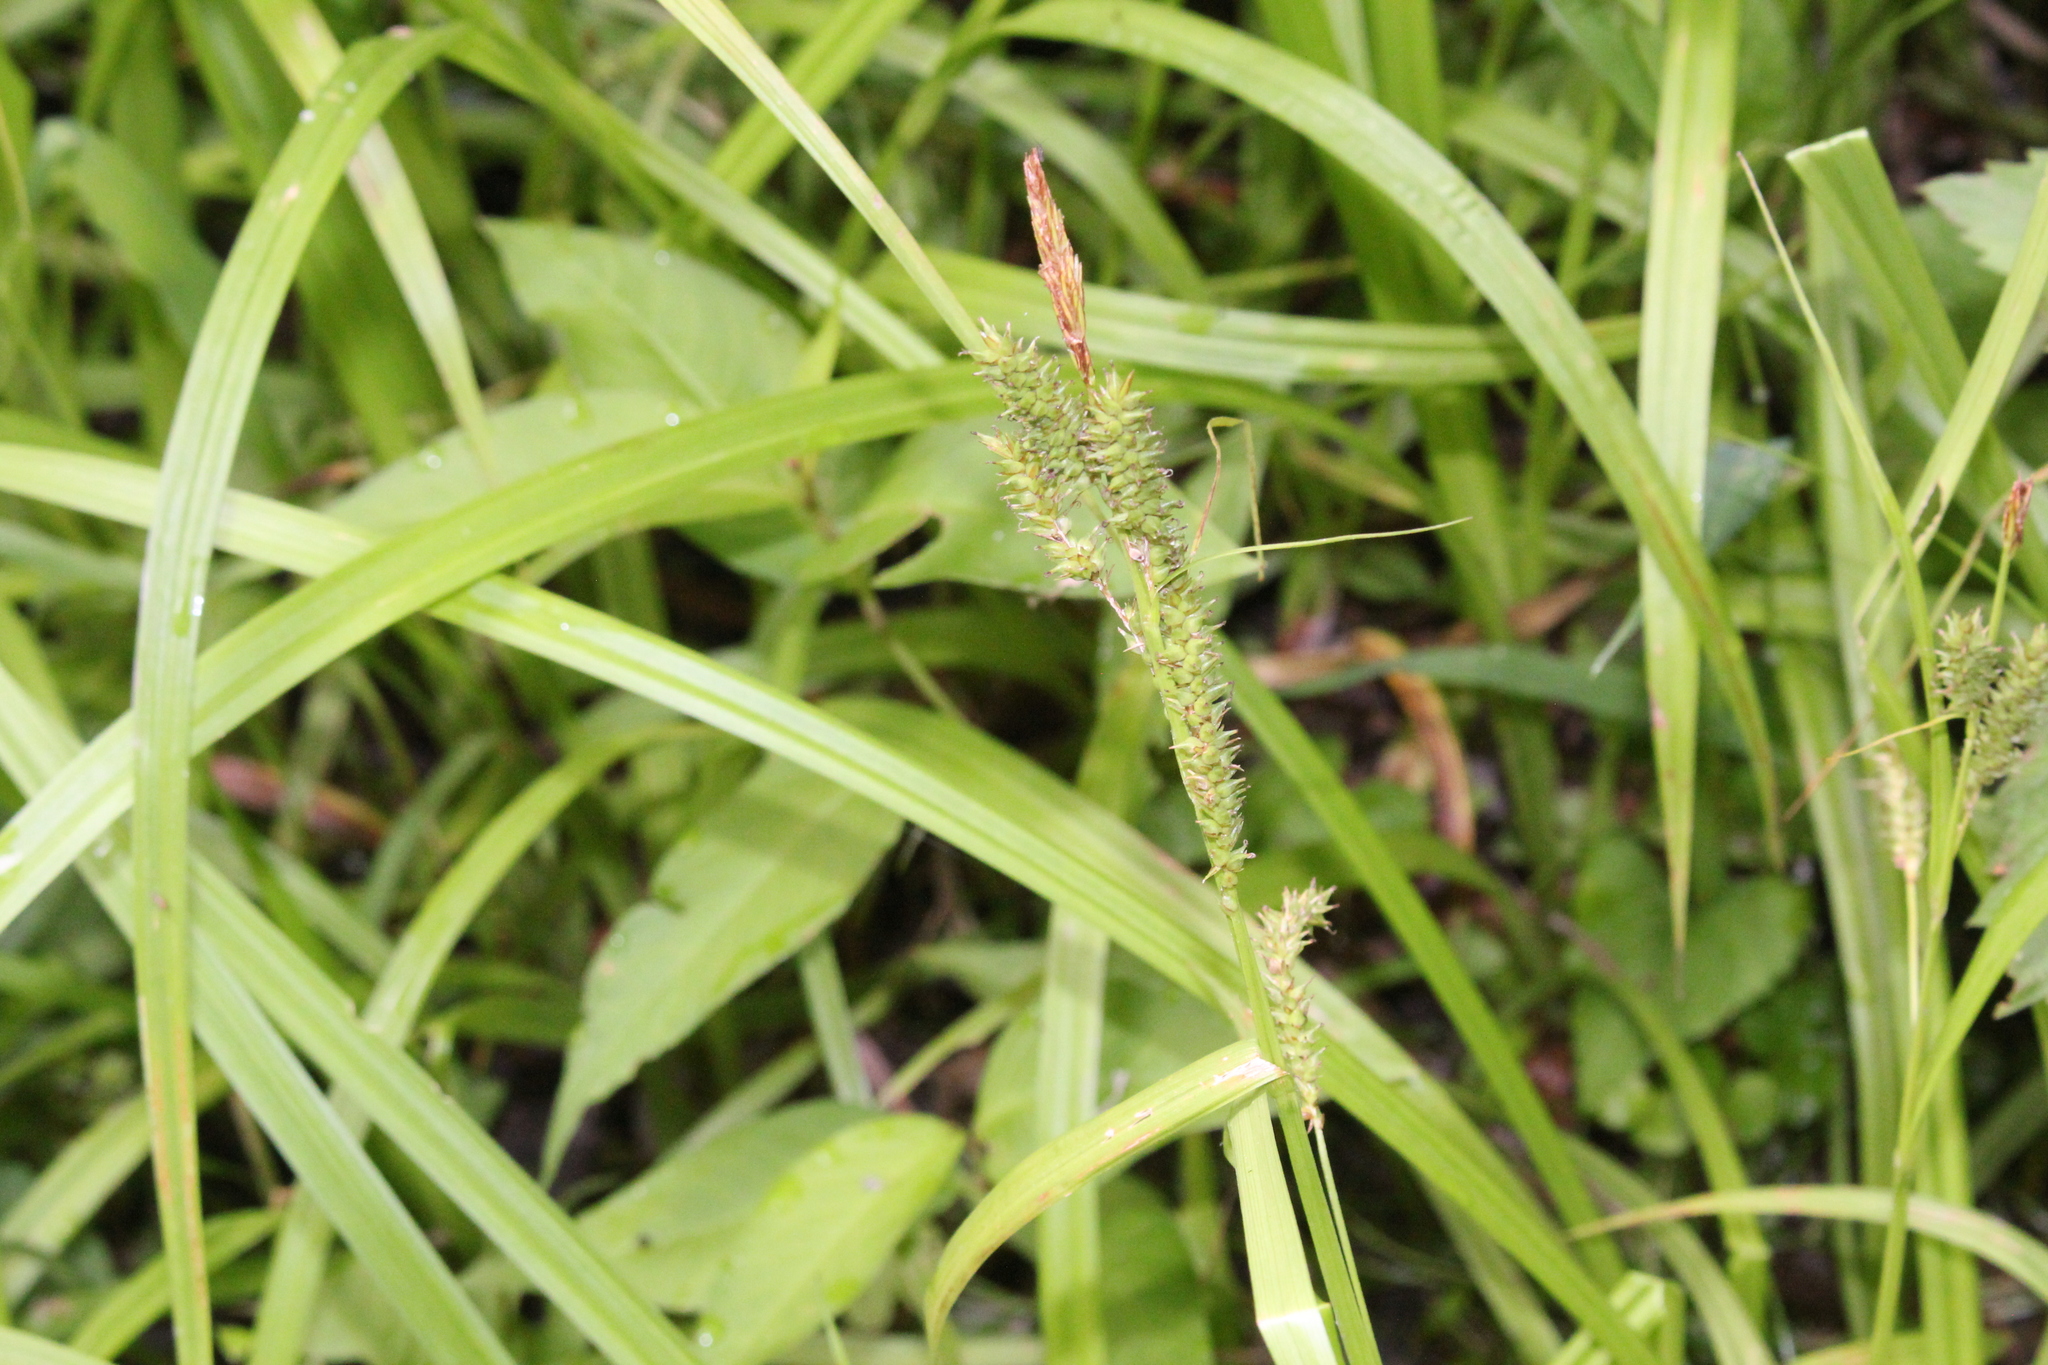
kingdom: Plantae
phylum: Tracheophyta
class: Liliopsida
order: Poales
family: Cyperaceae
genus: Carex
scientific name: Carex scabrata
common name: Eastern rough sedge
